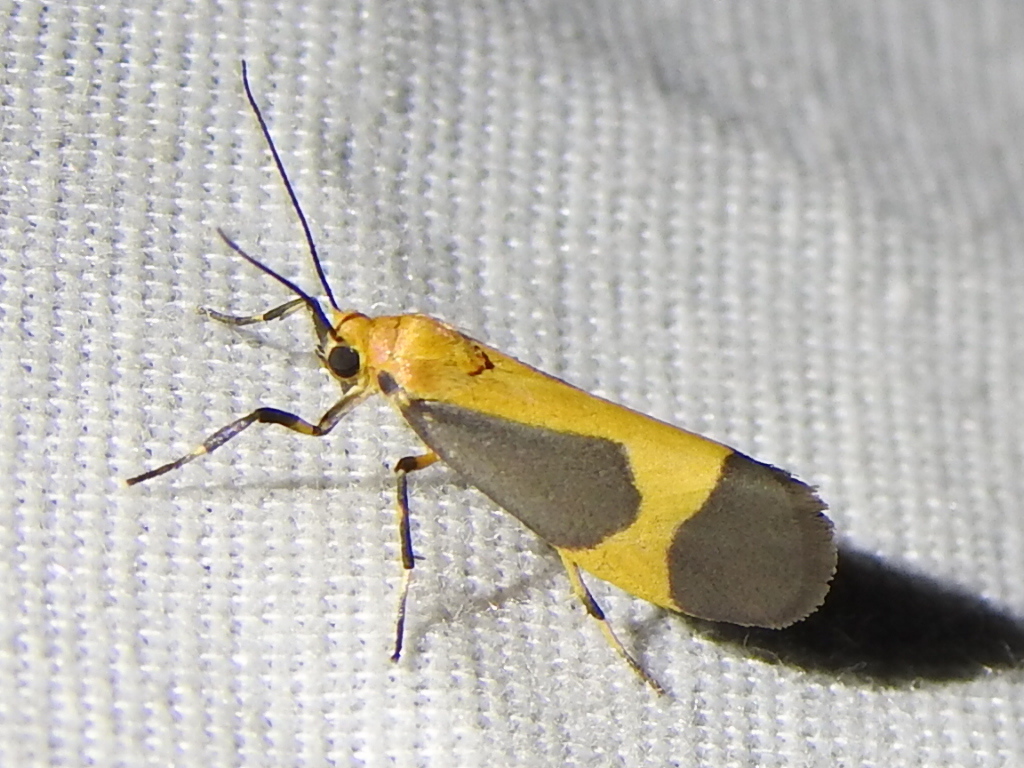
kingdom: Animalia
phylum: Arthropoda
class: Insecta
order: Lepidoptera
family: Erebidae
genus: Cisthene
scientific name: Cisthene picta
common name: Pictured lichen moth
